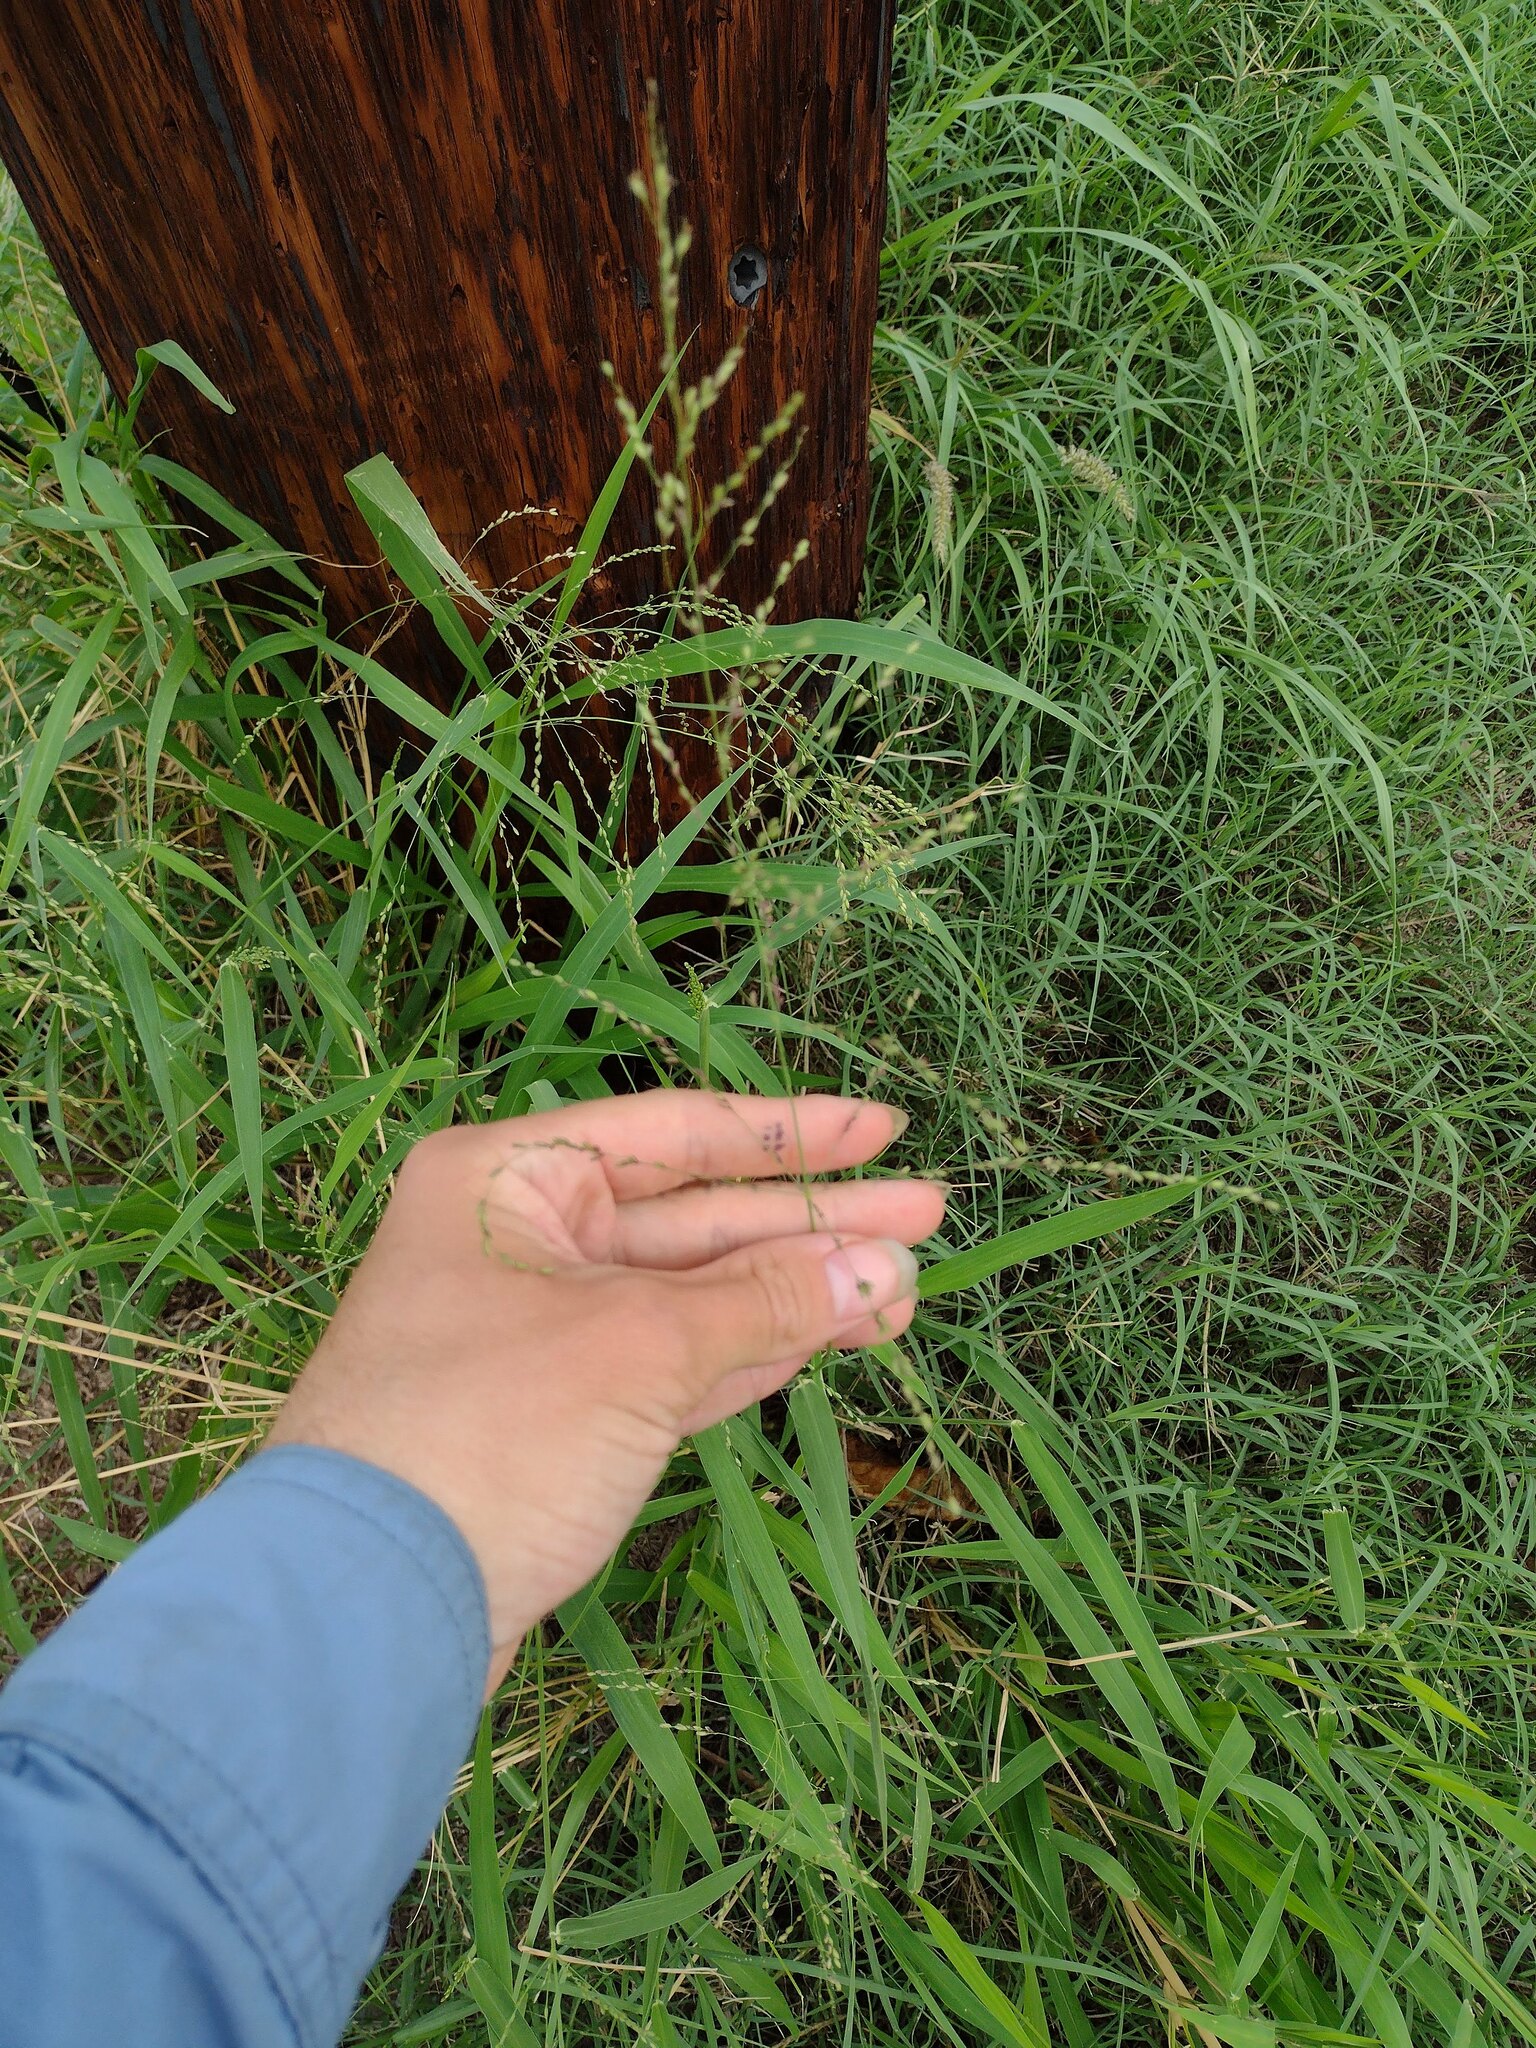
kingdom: Plantae
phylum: Tracheophyta
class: Liliopsida
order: Poales
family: Poaceae
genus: Megathyrsus
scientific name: Megathyrsus maximus
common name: Guineagrass
